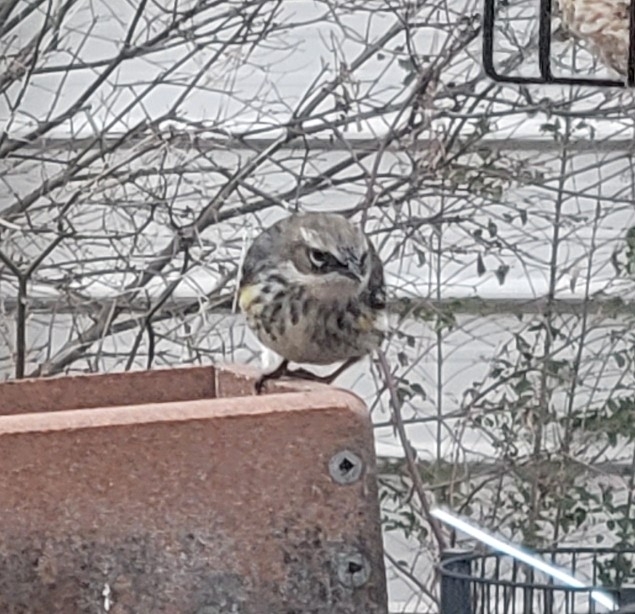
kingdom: Animalia
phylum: Chordata
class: Aves
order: Passeriformes
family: Parulidae
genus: Setophaga
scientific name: Setophaga coronata
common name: Myrtle warbler
